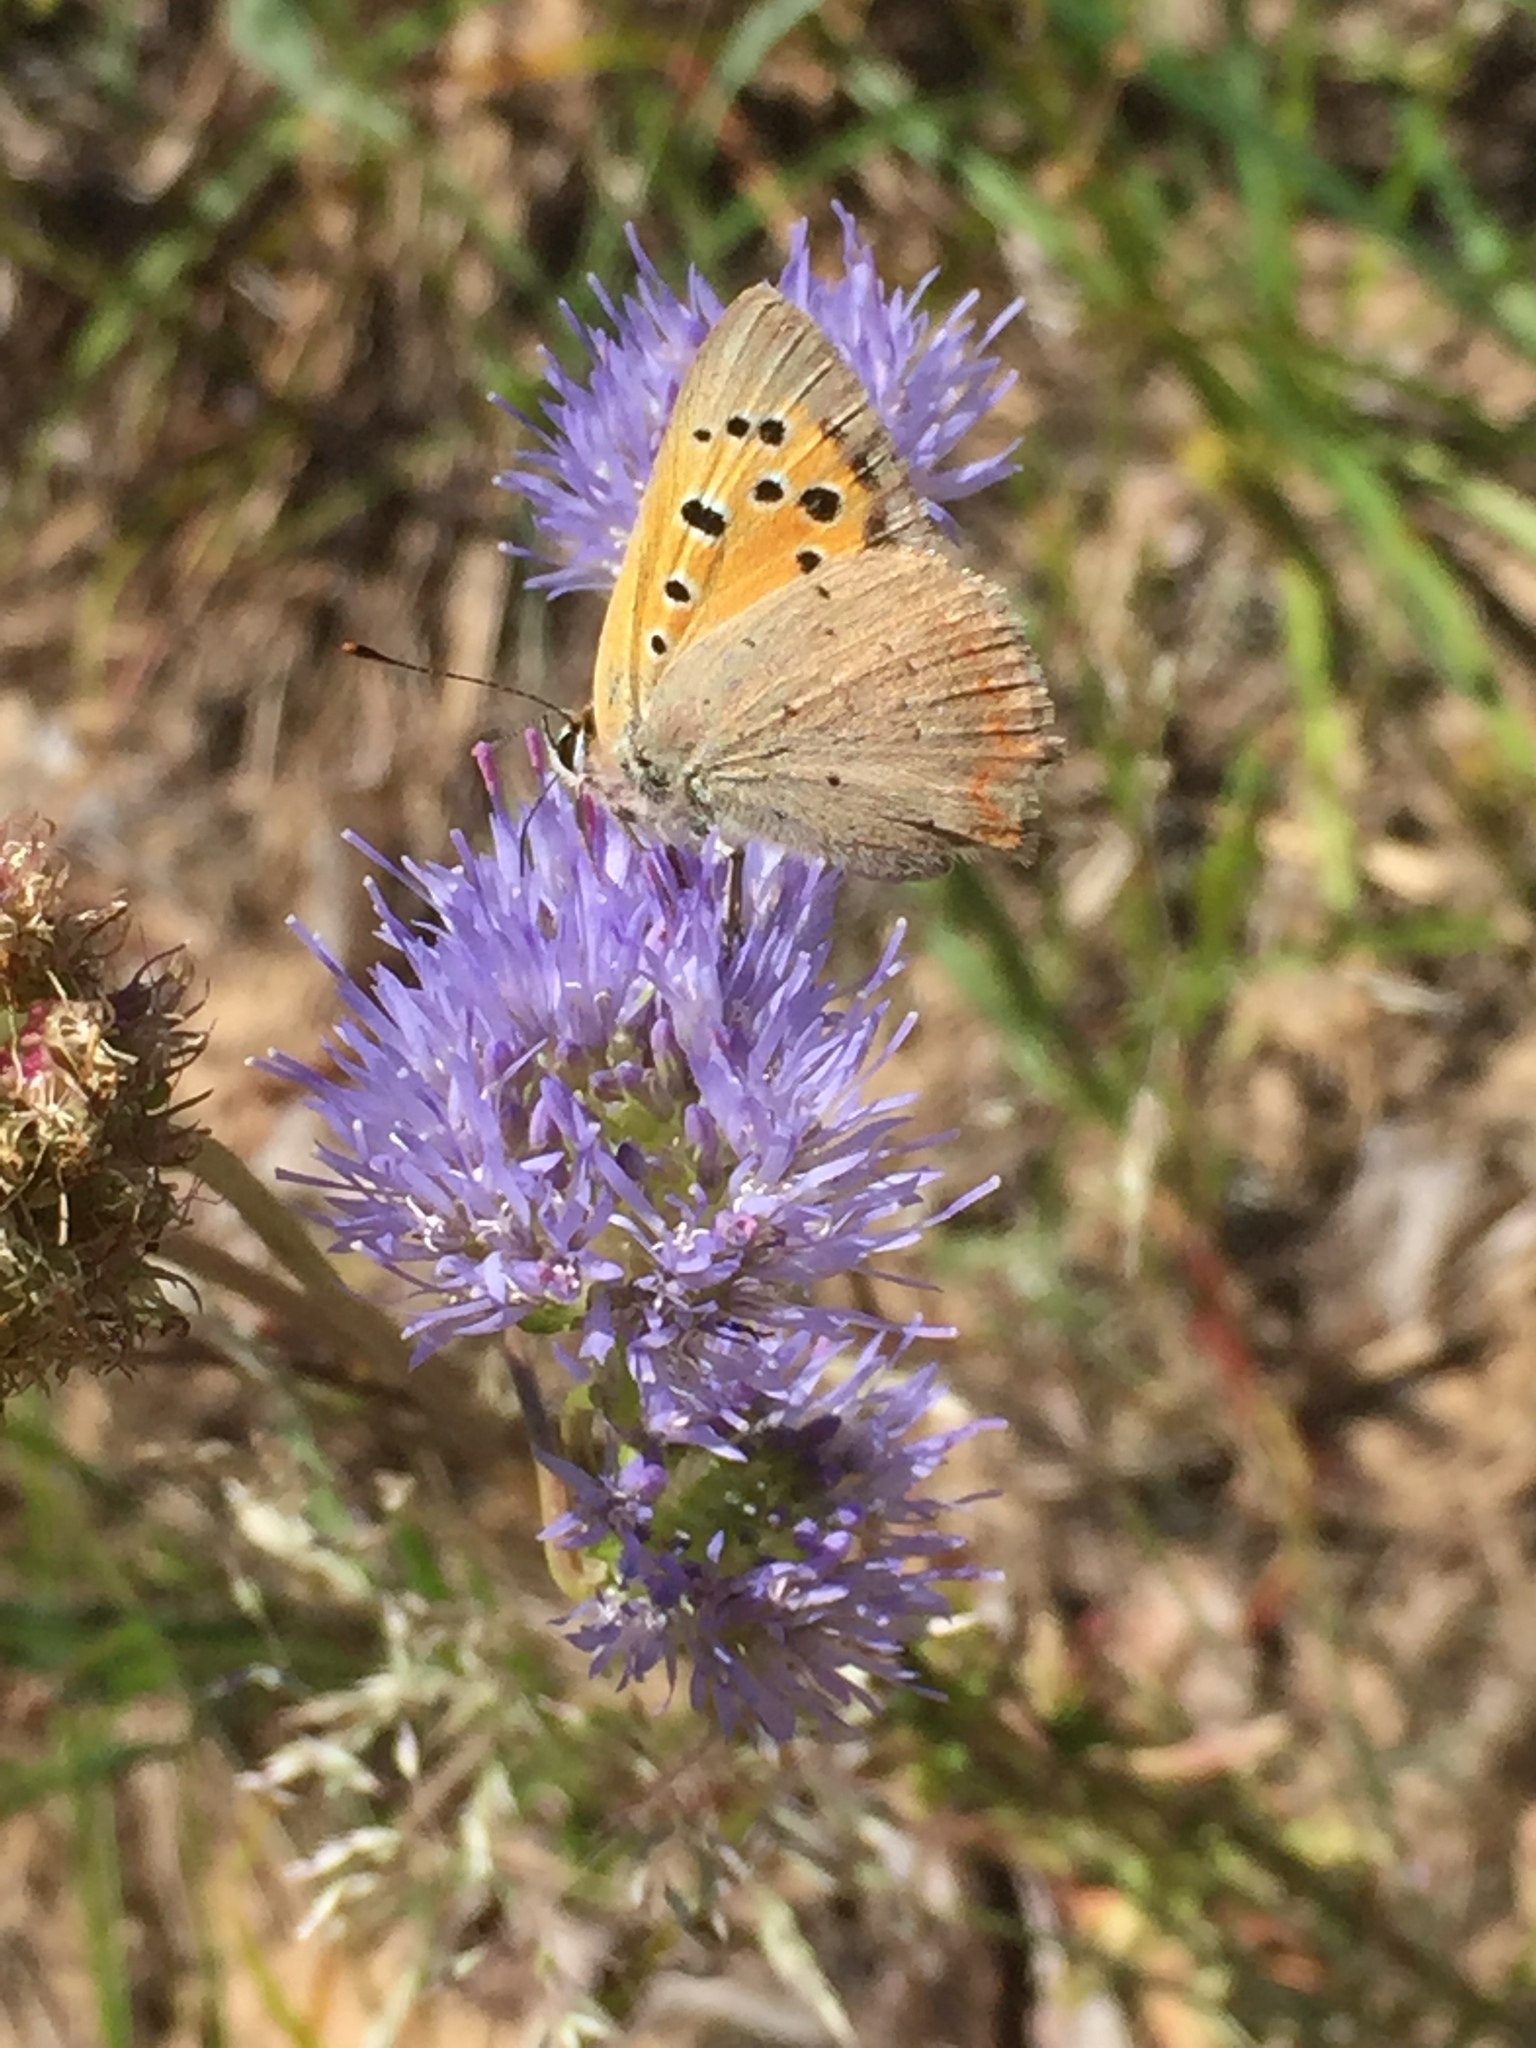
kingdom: Animalia
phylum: Arthropoda
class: Insecta
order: Lepidoptera
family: Lycaenidae
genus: Lycaena
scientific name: Lycaena phlaeas
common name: Small copper
